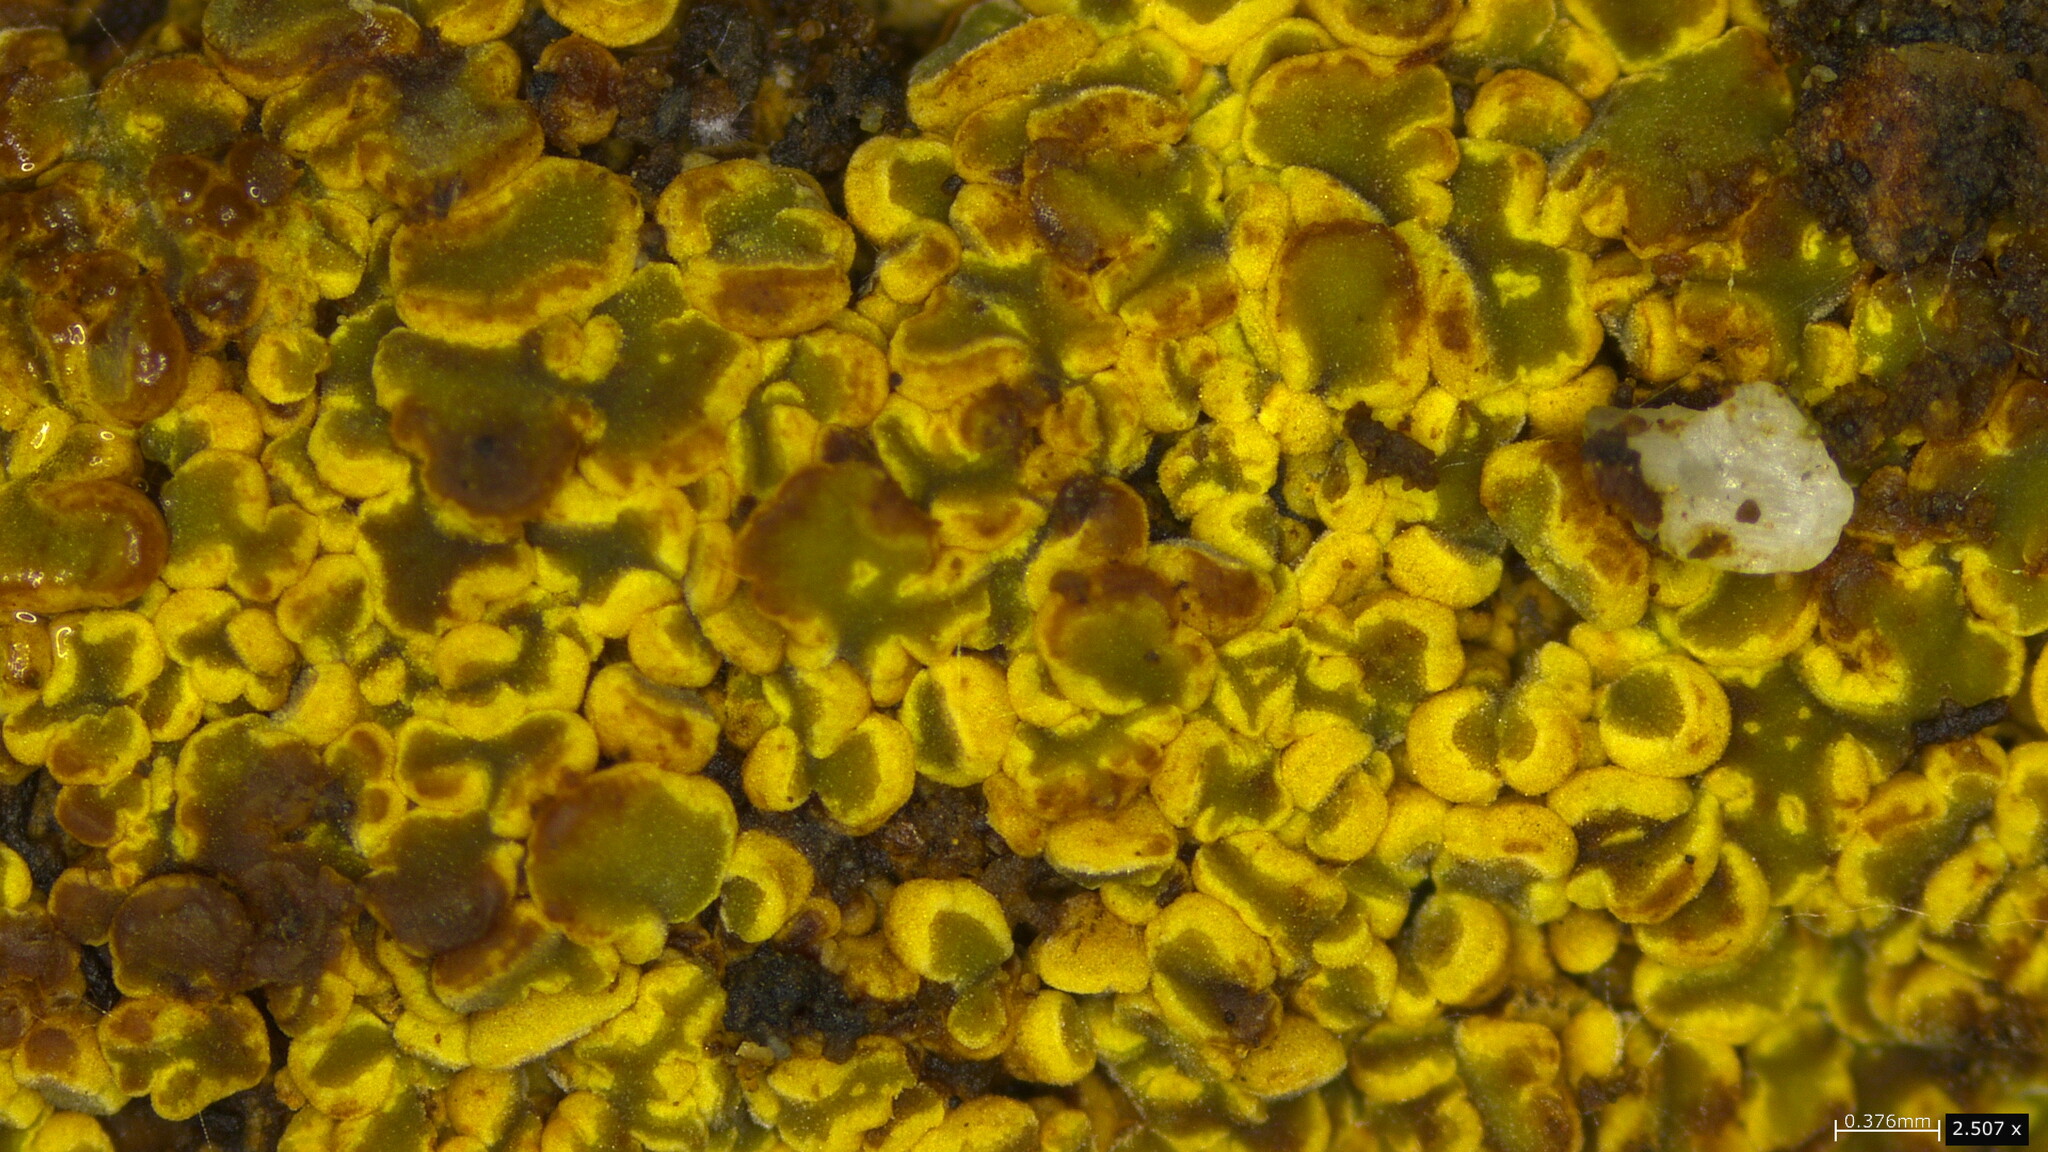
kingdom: Fungi
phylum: Ascomycota
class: Leotiomycetes
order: Helotiales
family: Cenangiaceae
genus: Encoelia
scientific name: Encoelia cubensis
